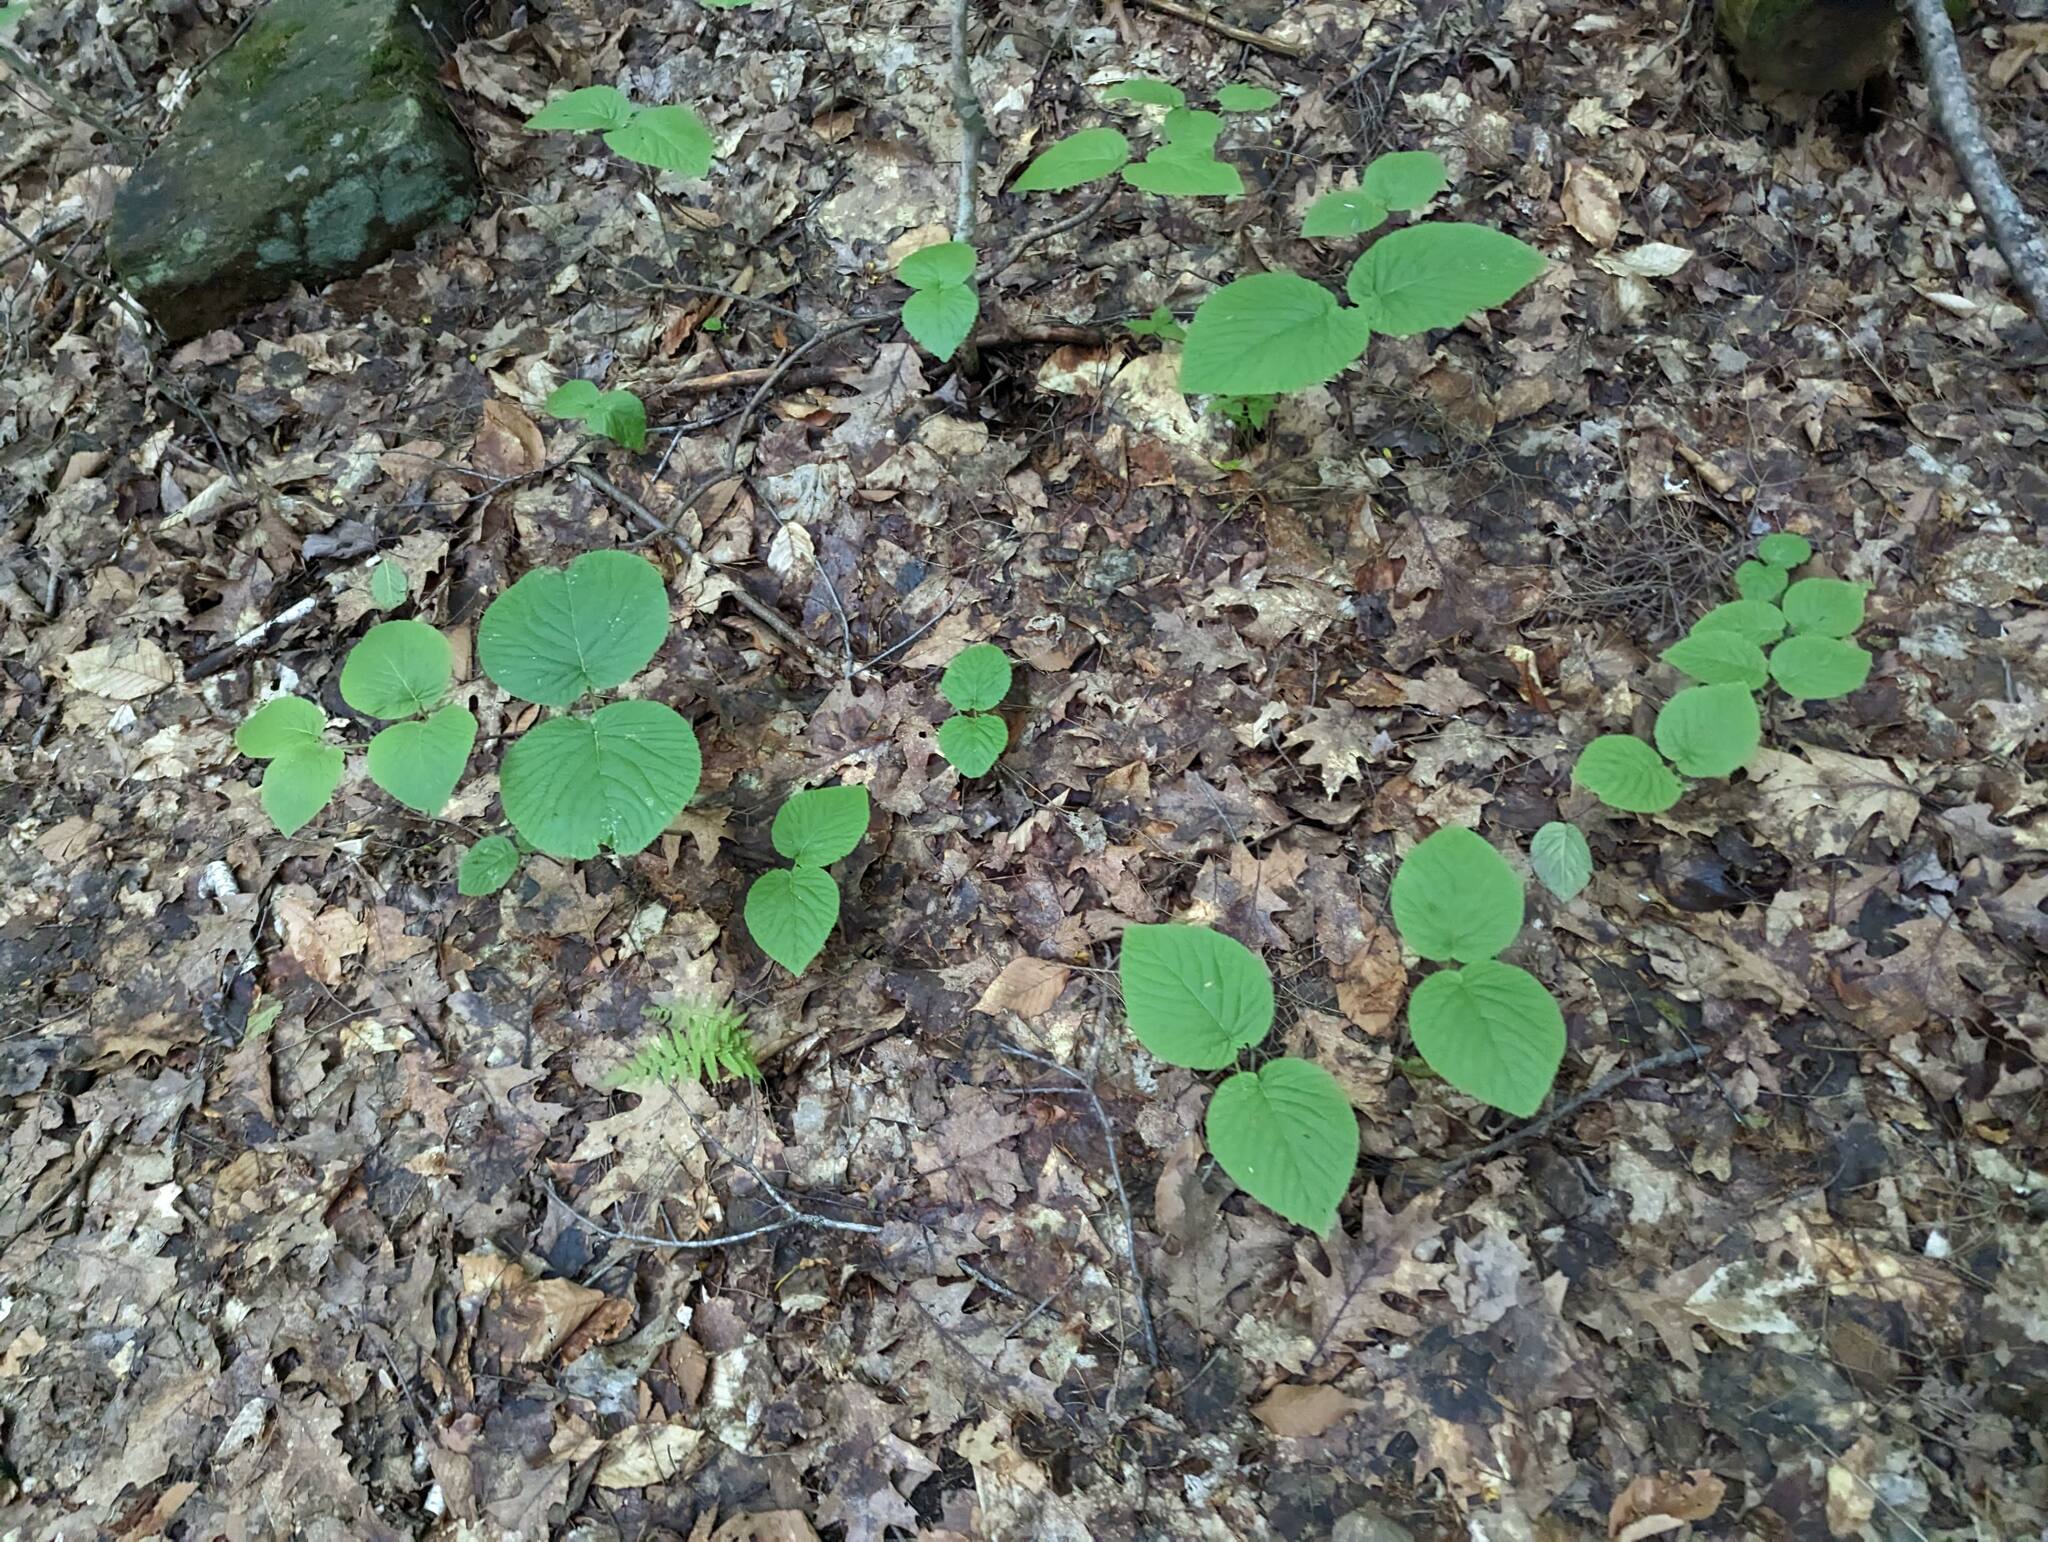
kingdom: Plantae
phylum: Tracheophyta
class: Magnoliopsida
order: Dipsacales
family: Viburnaceae
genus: Viburnum
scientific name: Viburnum lantanoides
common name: Hobblebush
